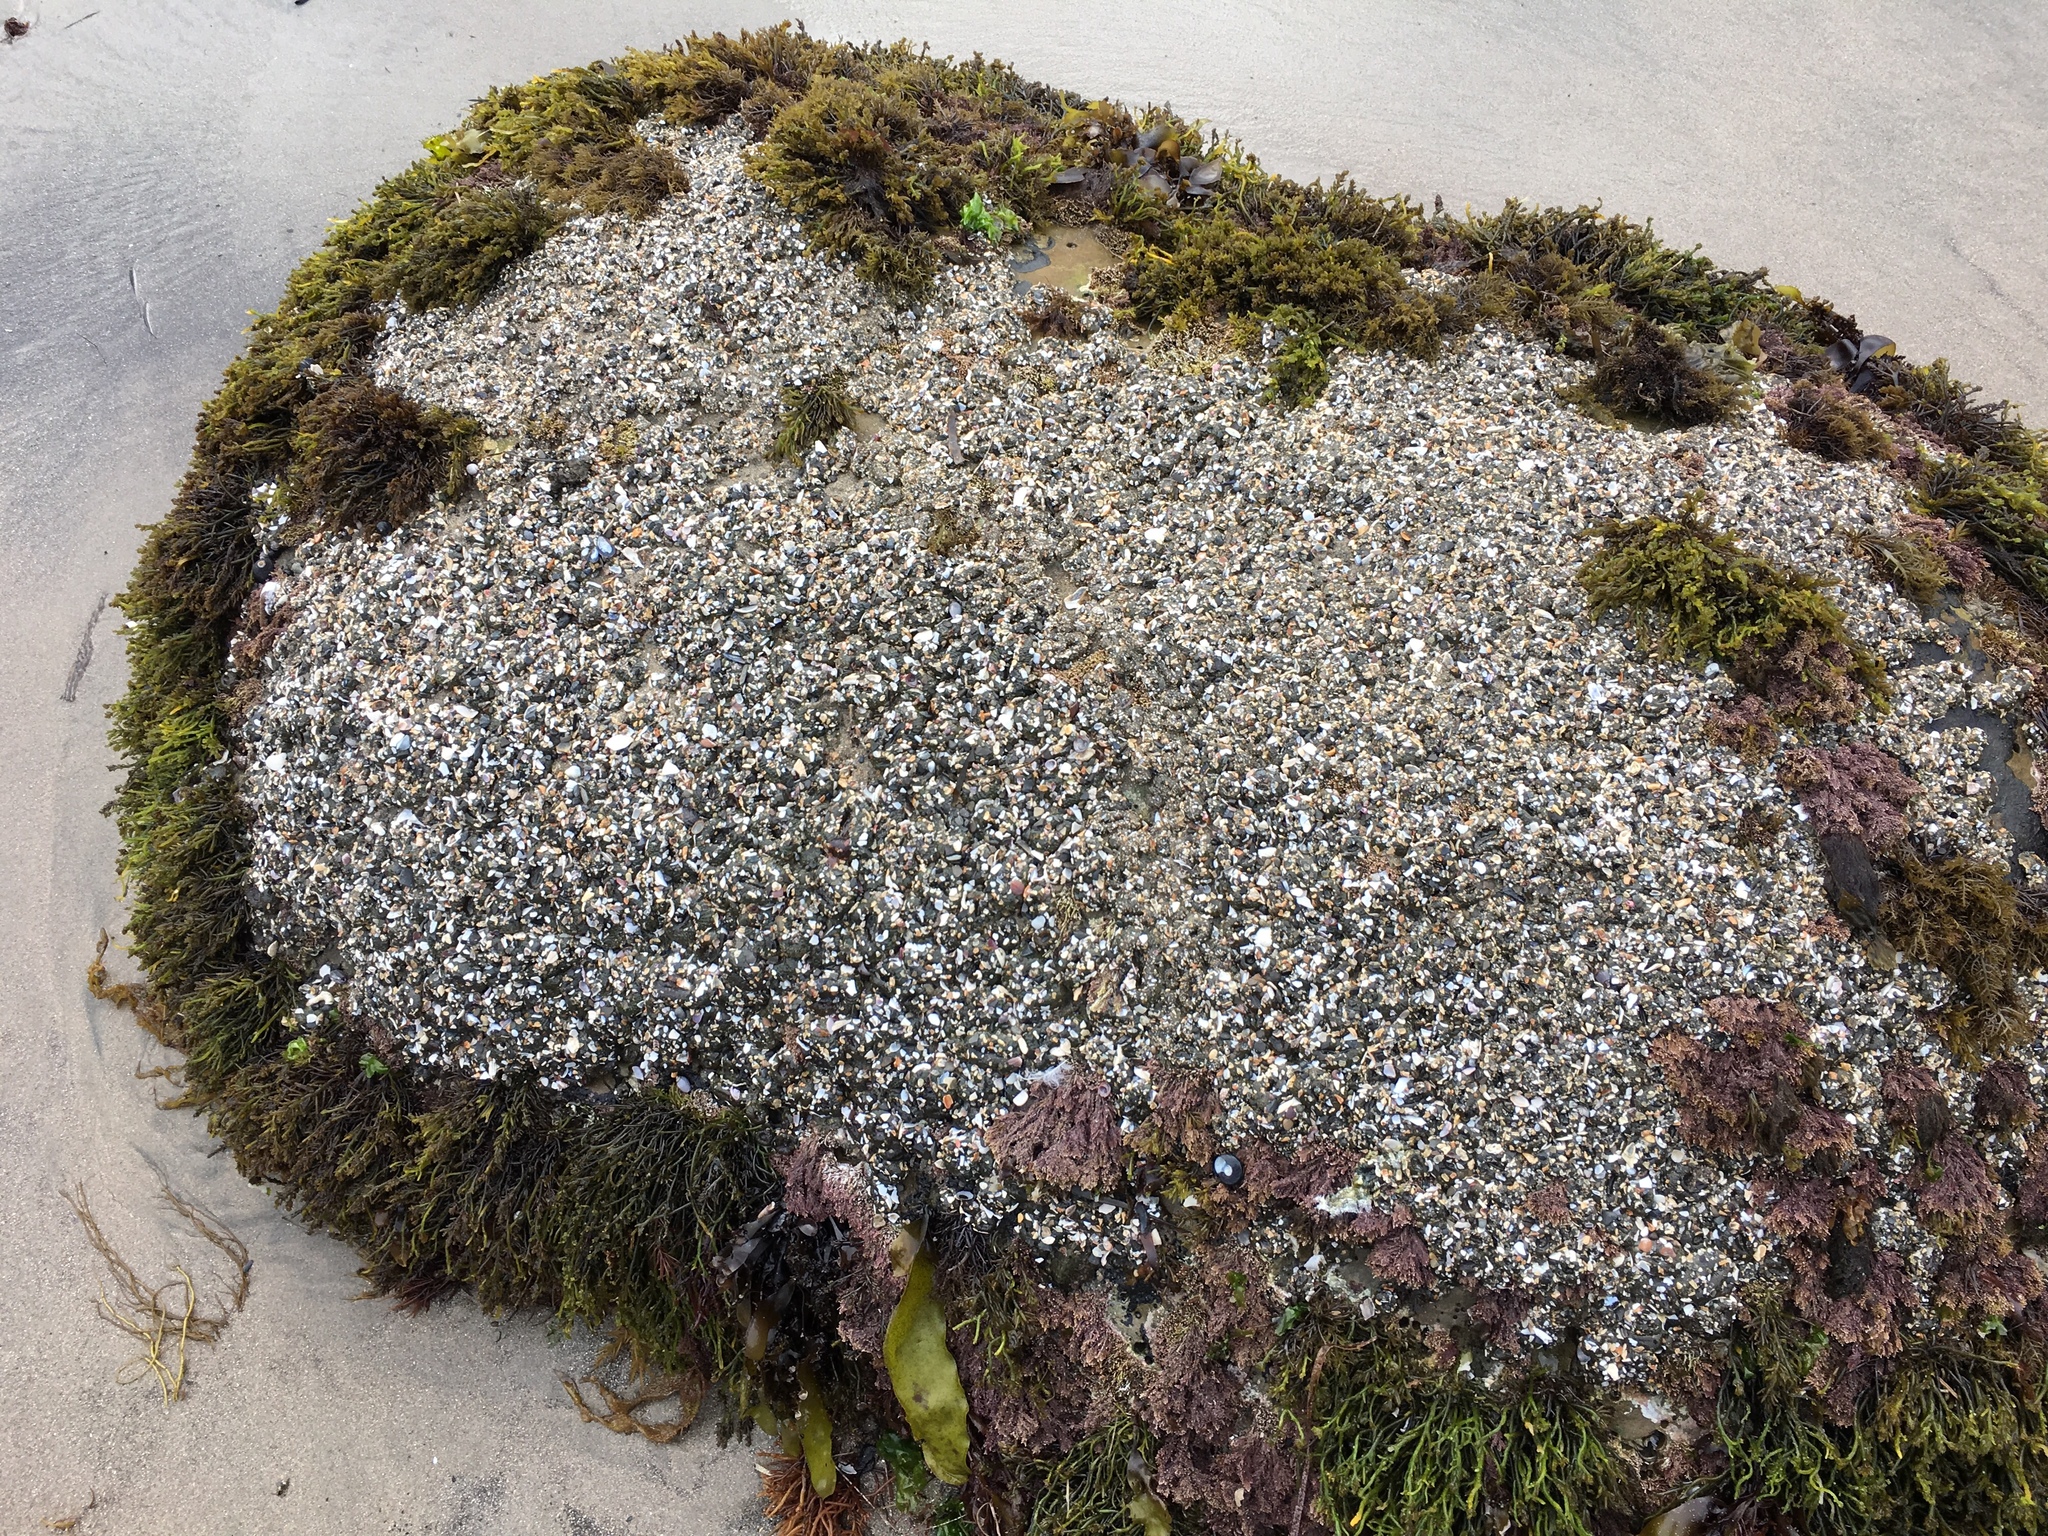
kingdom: Animalia
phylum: Cnidaria
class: Anthozoa
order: Actiniaria
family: Actiniidae
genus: Anthopleura
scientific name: Anthopleura elegantissima
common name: Clonal anemone
